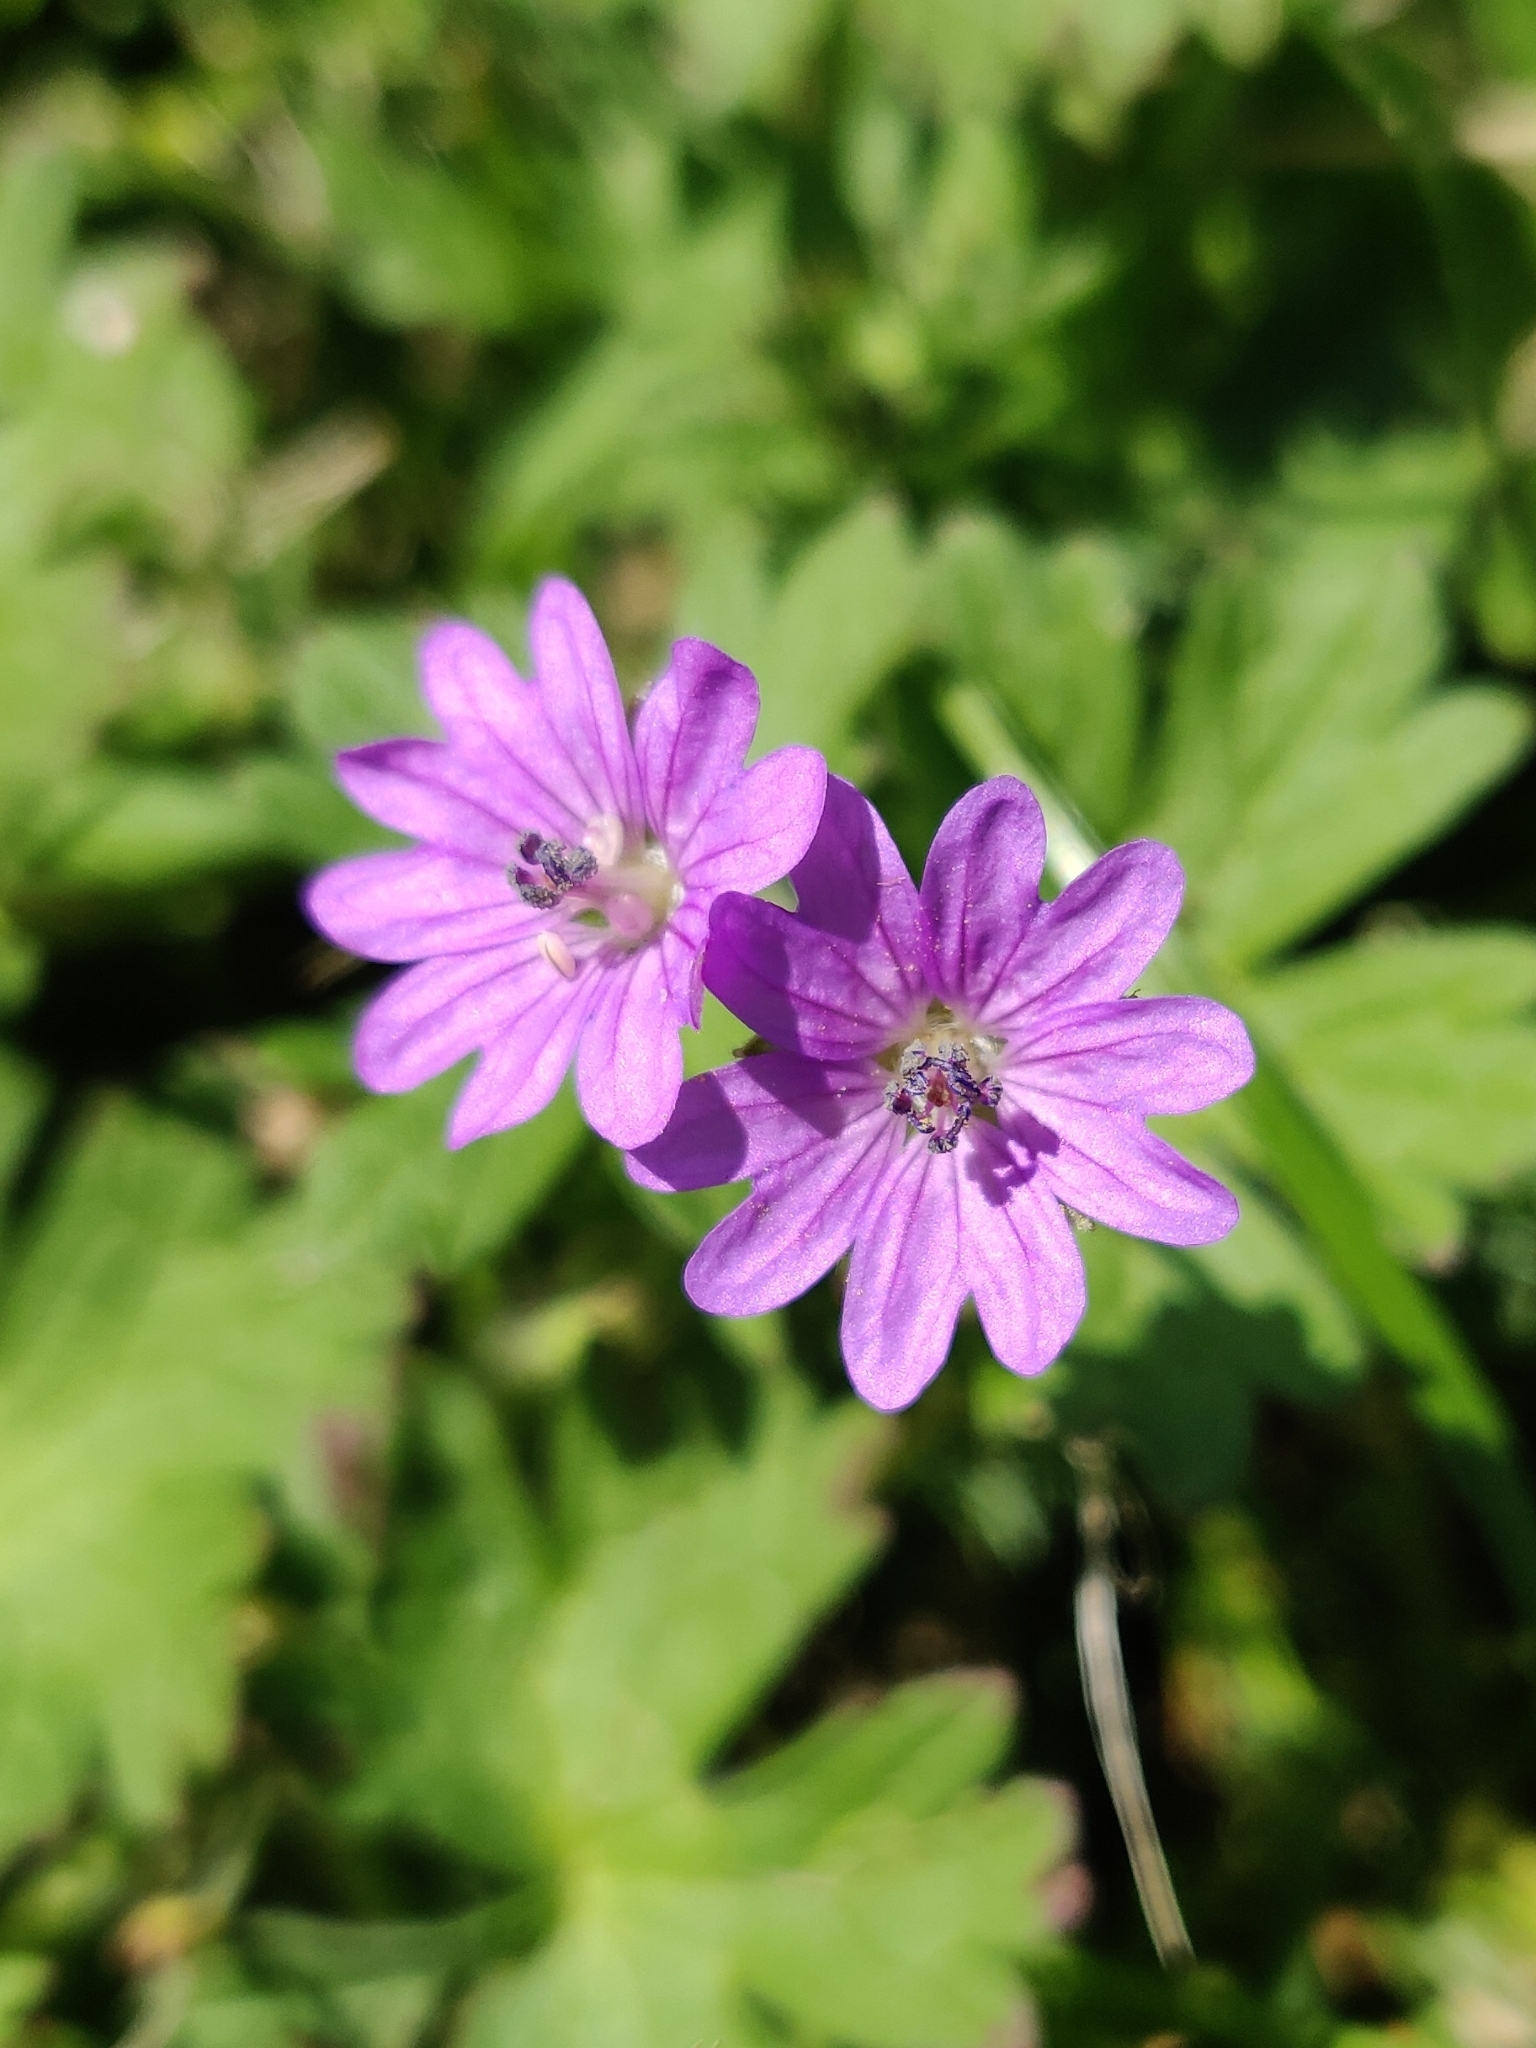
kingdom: Plantae
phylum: Tracheophyta
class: Magnoliopsida
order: Geraniales
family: Geraniaceae
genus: Geranium
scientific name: Geranium pyrenaicum
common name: Hedgerow crane's-bill
